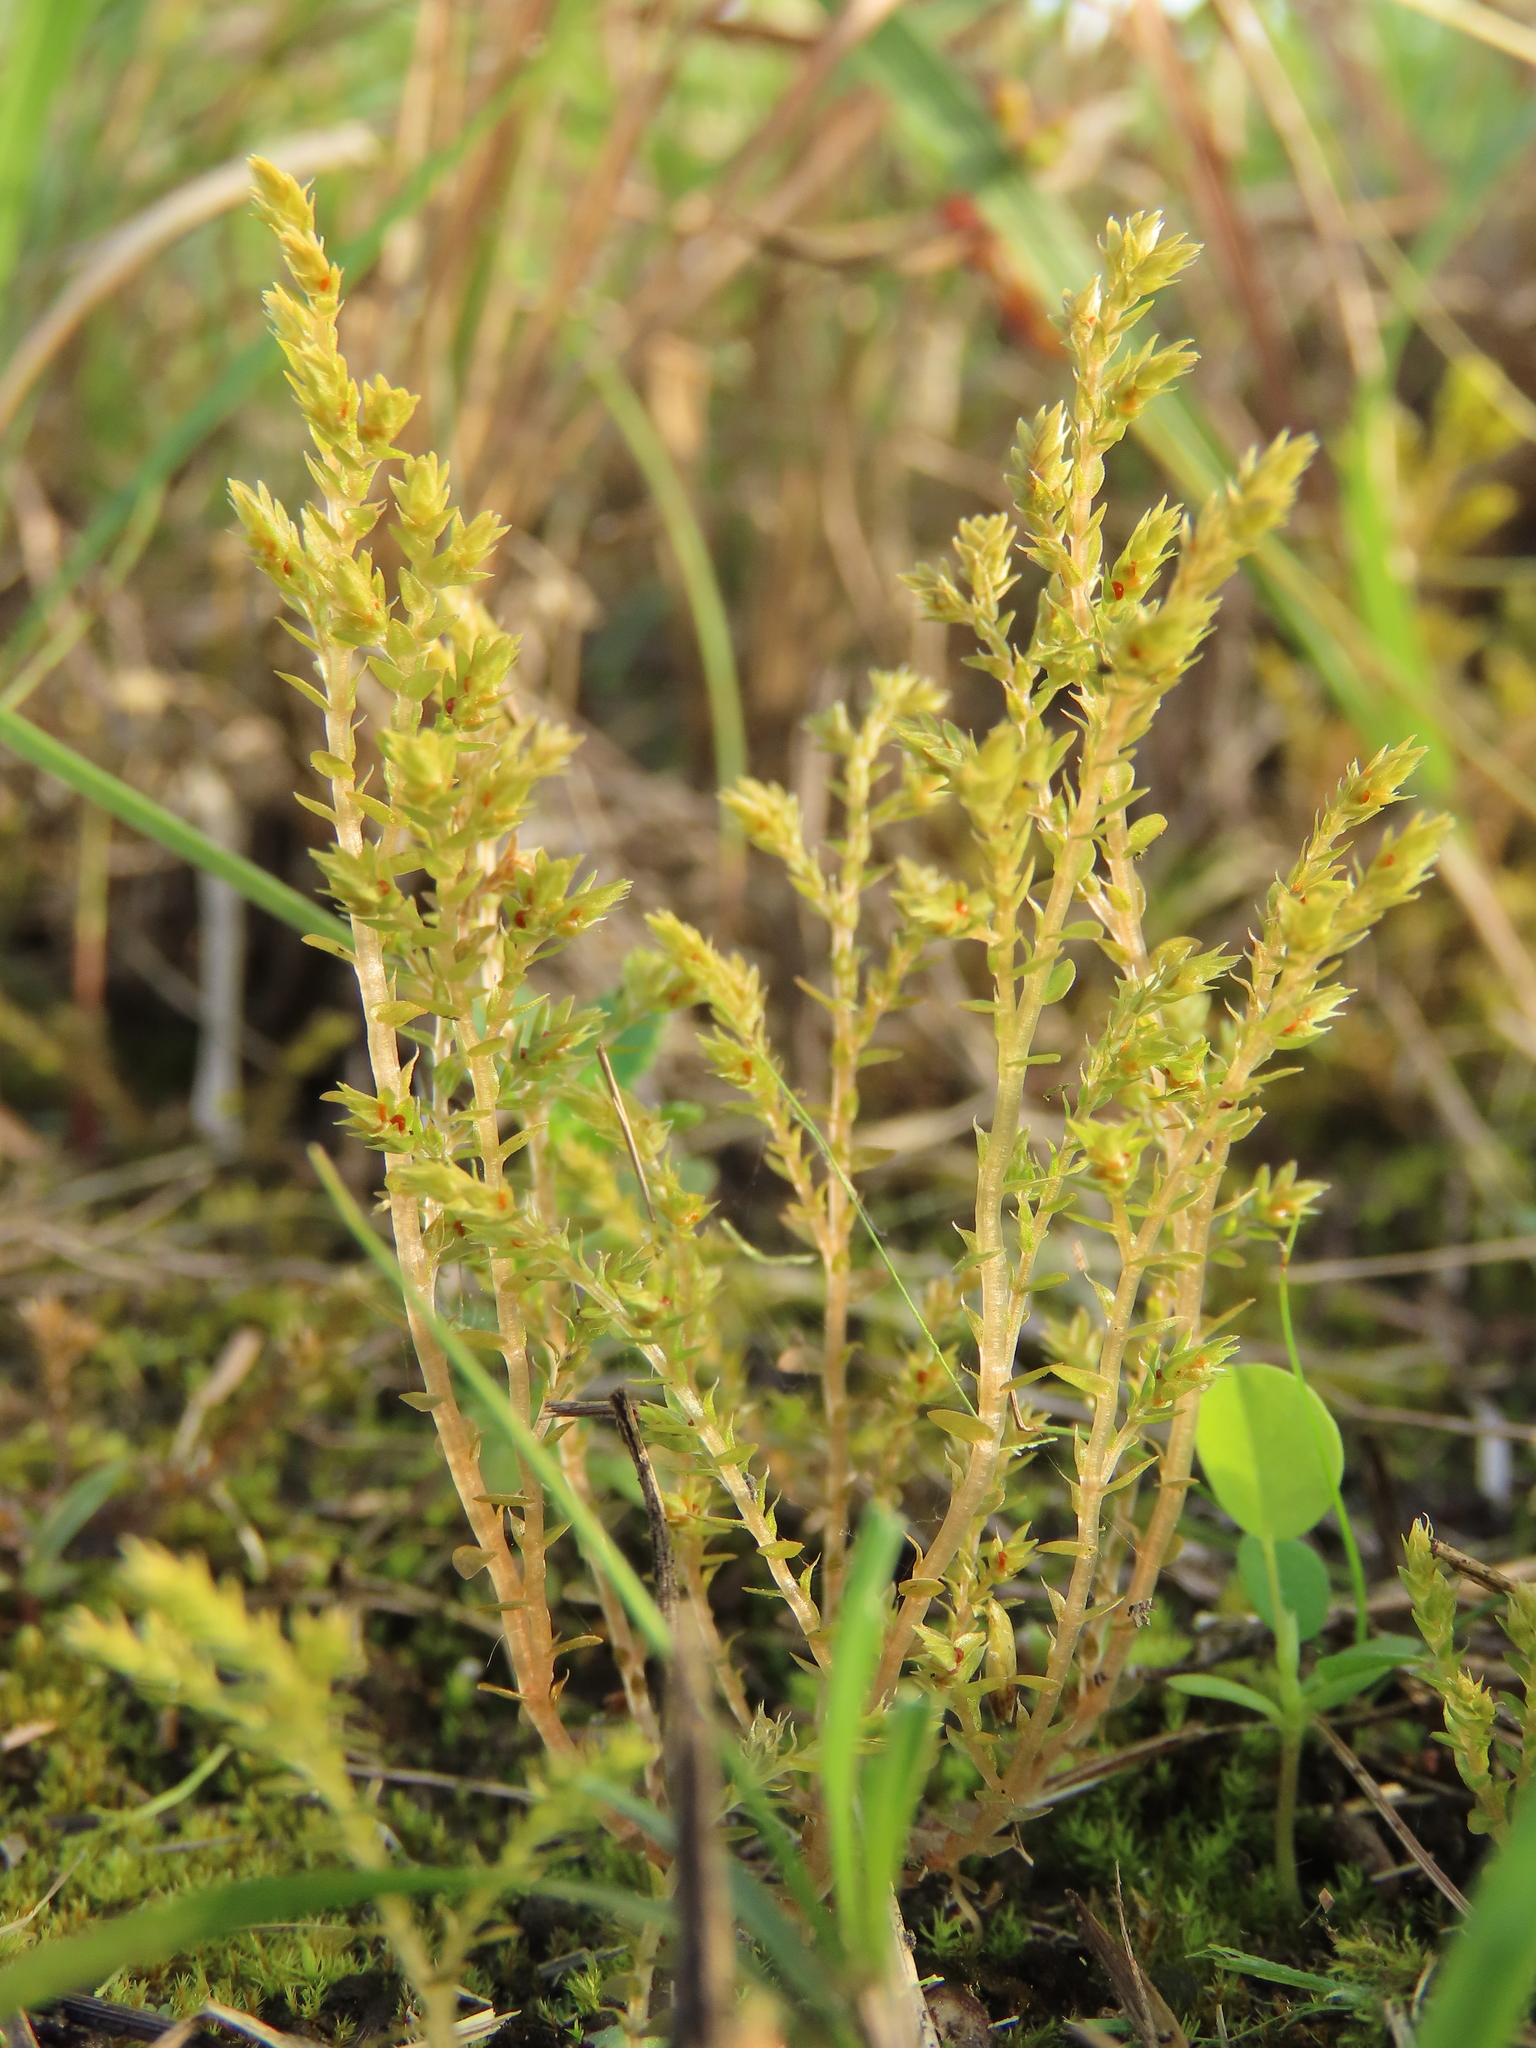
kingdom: Plantae
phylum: Tracheophyta
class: Lycopodiopsida
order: Selaginellales
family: Selaginellaceae
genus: Selaginella
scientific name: Selaginella aristata
